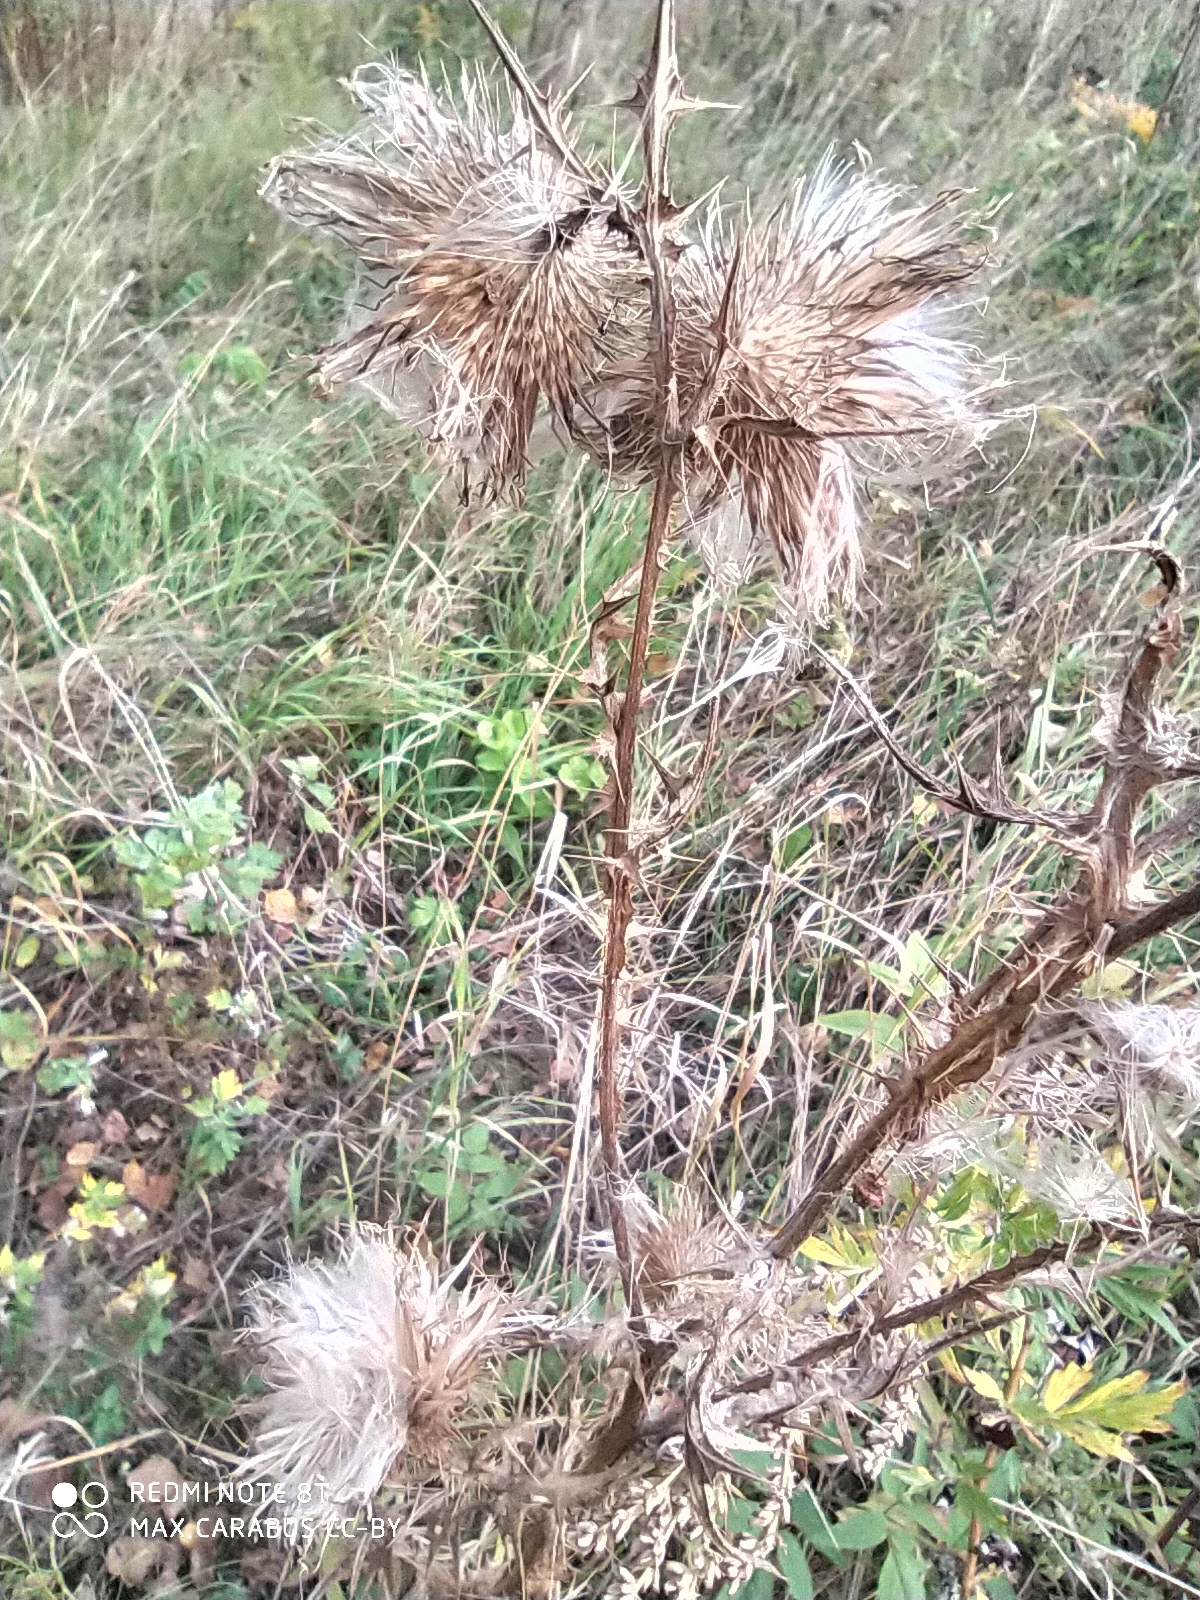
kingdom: Plantae
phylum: Tracheophyta
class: Magnoliopsida
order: Asterales
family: Asteraceae
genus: Cirsium
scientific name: Cirsium vulgare
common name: Bull thistle
